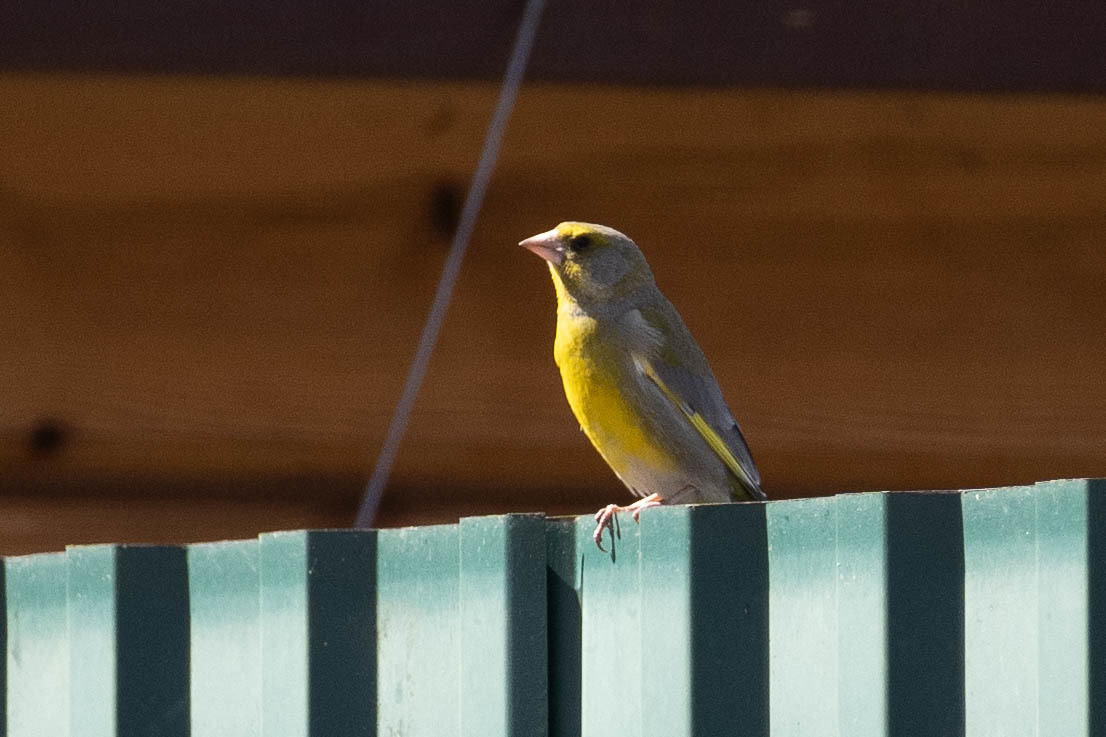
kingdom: Plantae
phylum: Tracheophyta
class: Liliopsida
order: Poales
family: Poaceae
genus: Chloris
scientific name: Chloris chloris
